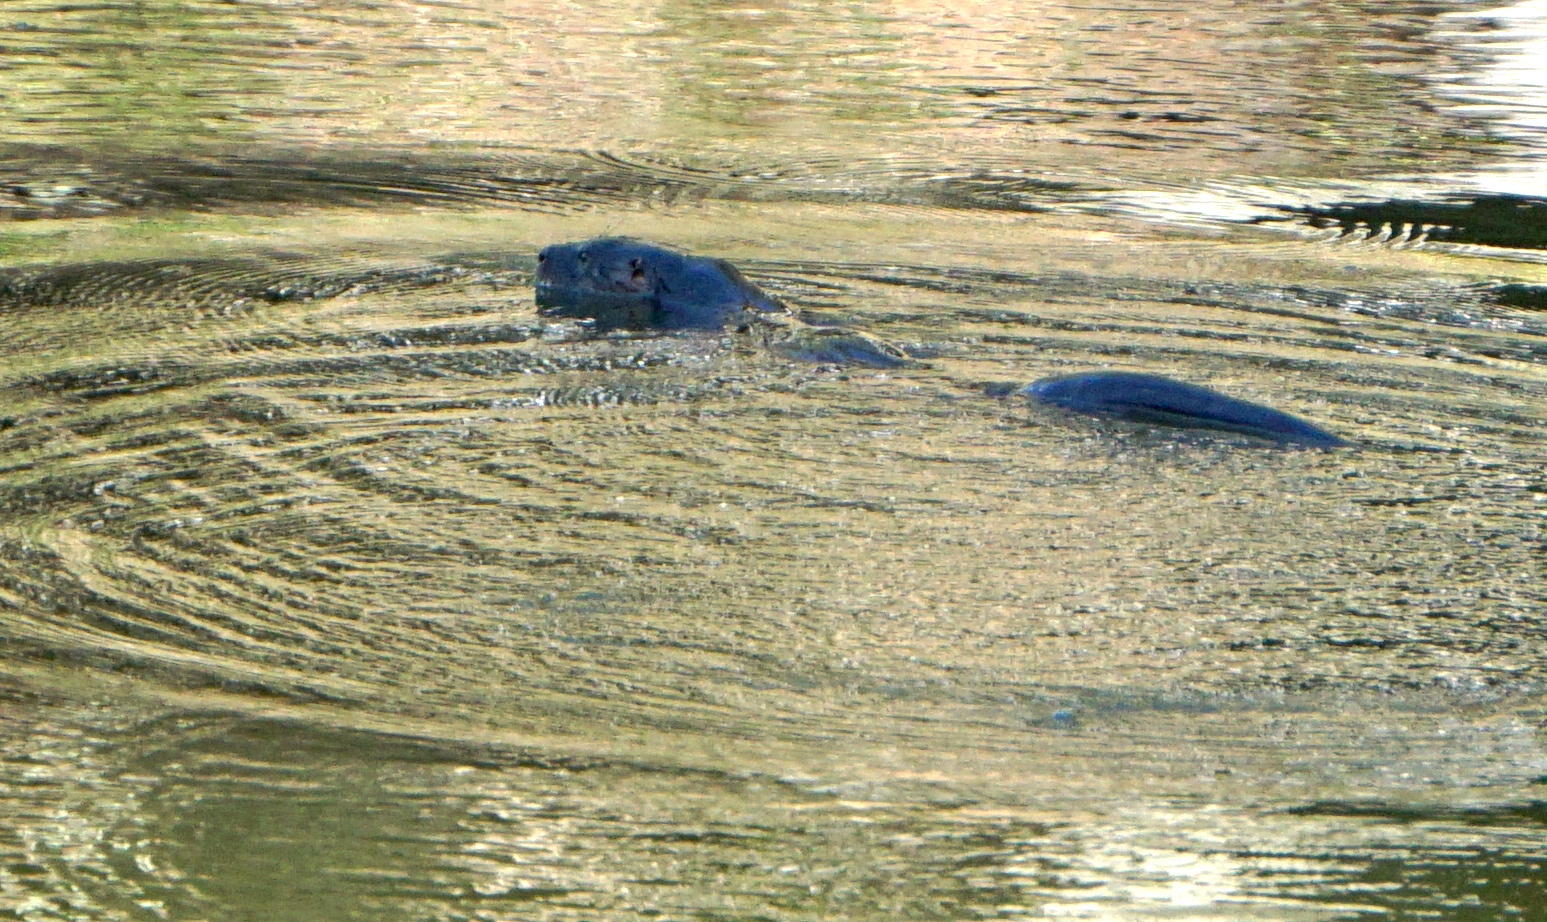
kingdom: Animalia
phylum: Chordata
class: Mammalia
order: Carnivora
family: Mustelidae
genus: Lontra
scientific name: Lontra canadensis
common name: North american river otter
